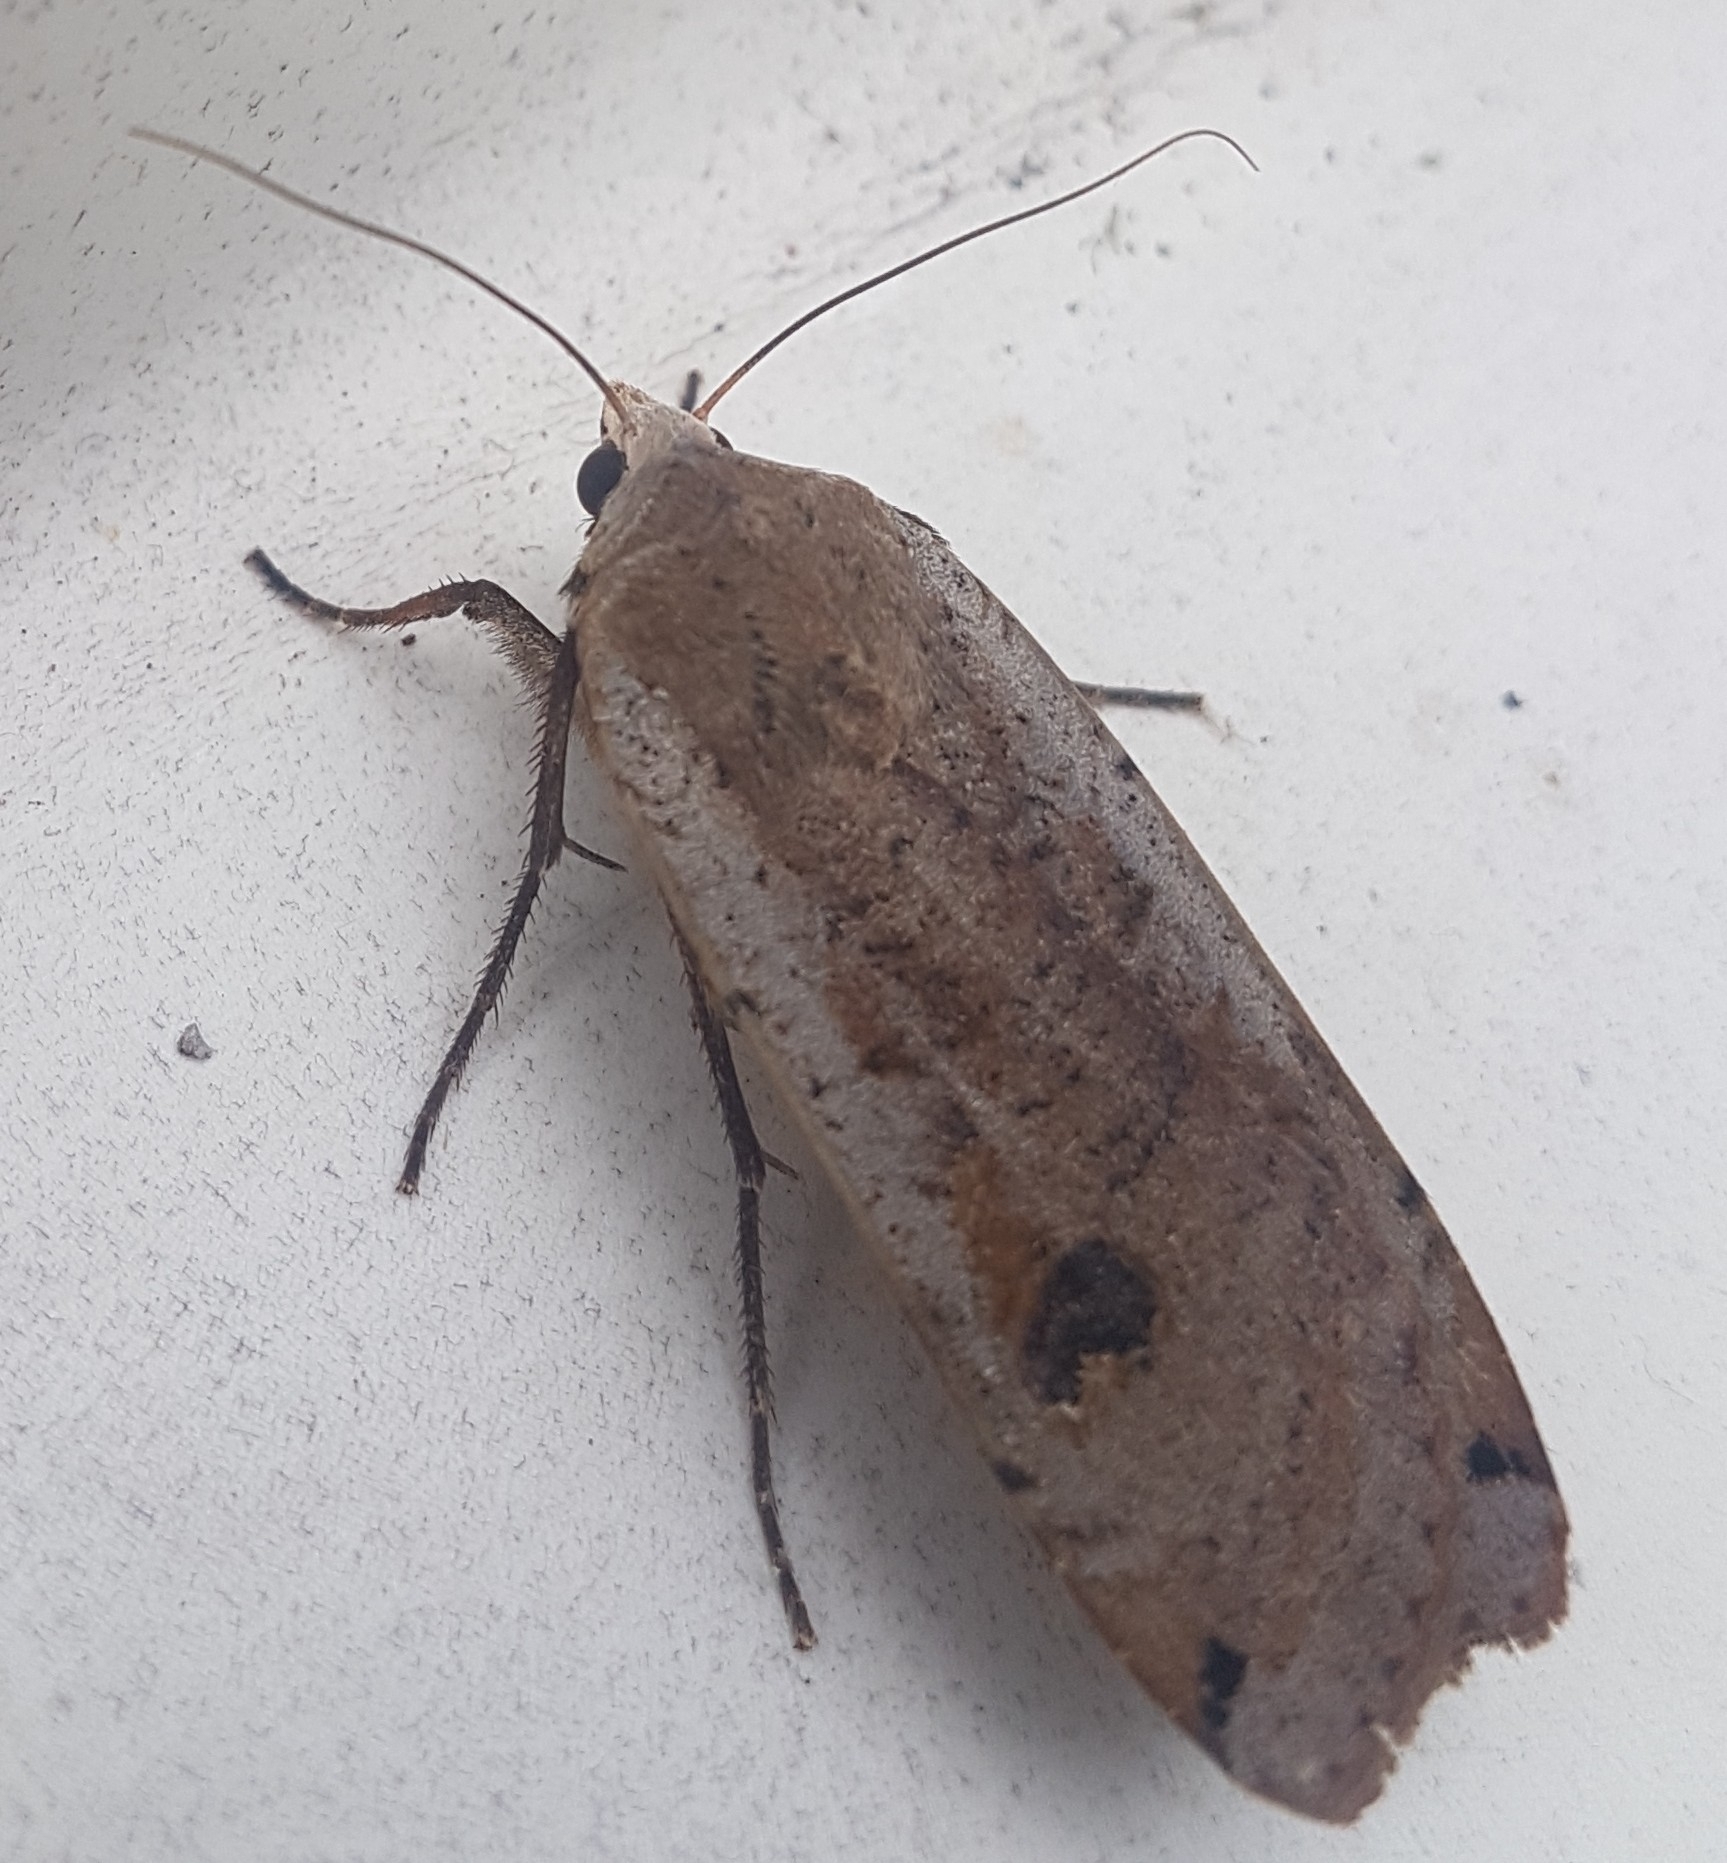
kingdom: Animalia
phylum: Arthropoda
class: Insecta
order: Lepidoptera
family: Noctuidae
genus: Noctua
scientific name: Noctua pronuba
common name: Large yellow underwing
